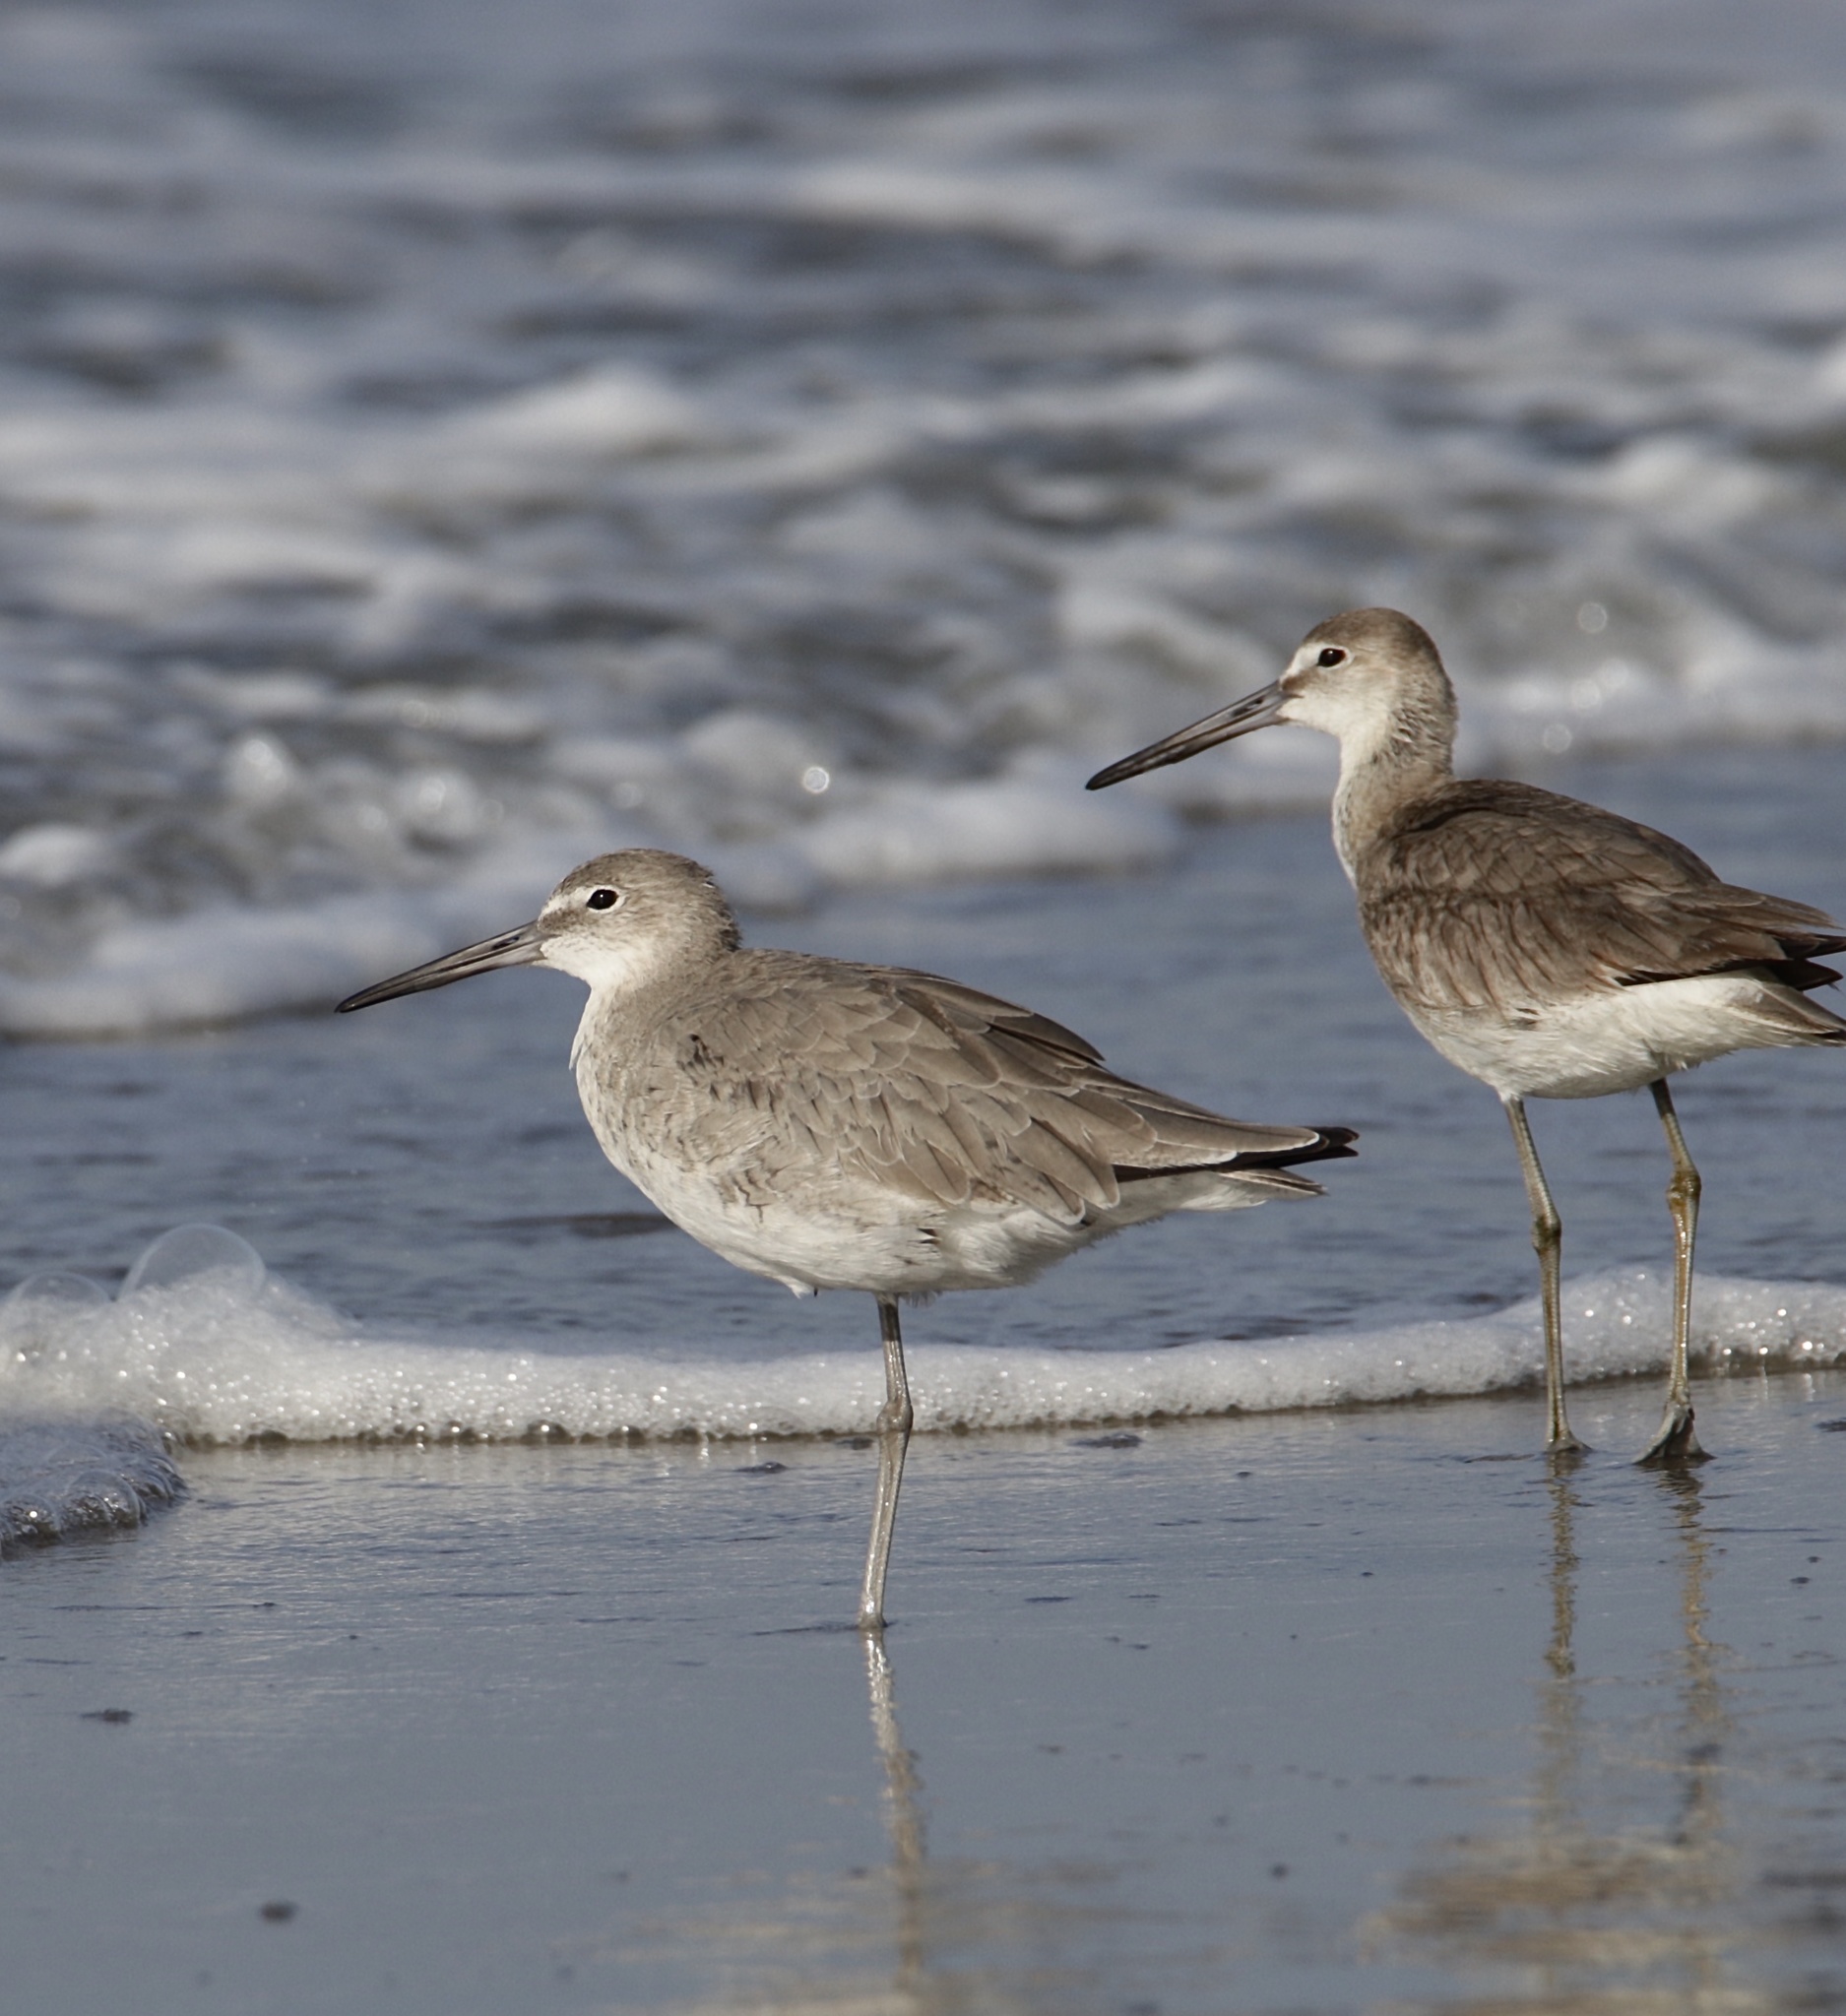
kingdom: Animalia
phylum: Chordata
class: Aves
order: Charadriiformes
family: Scolopacidae
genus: Tringa
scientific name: Tringa semipalmata
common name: Willet
